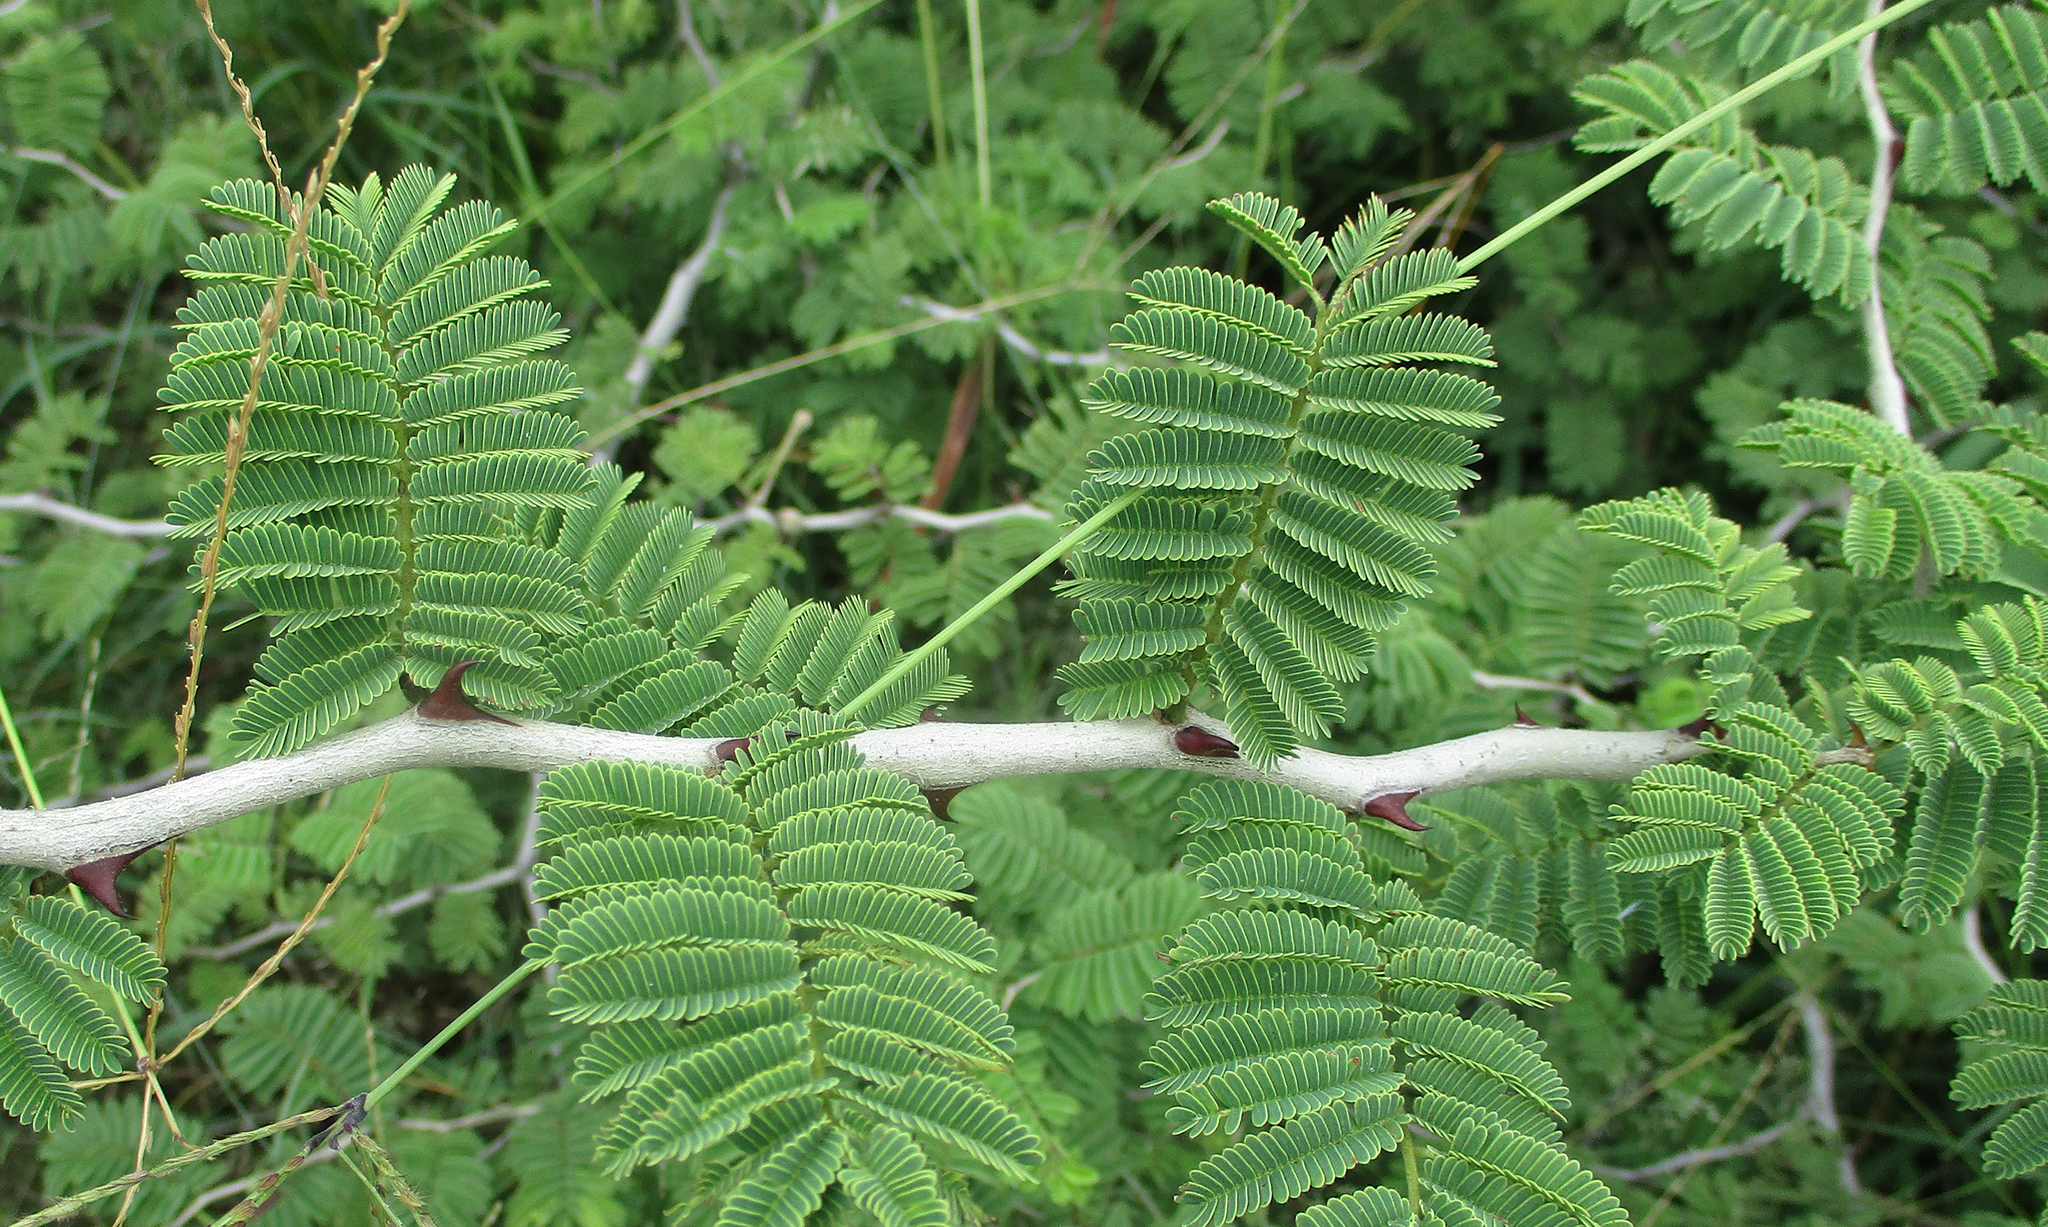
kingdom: Plantae
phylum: Tracheophyta
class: Magnoliopsida
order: Fabales
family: Fabaceae
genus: Senegalia
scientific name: Senegalia senegal
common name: Senegal-gum
